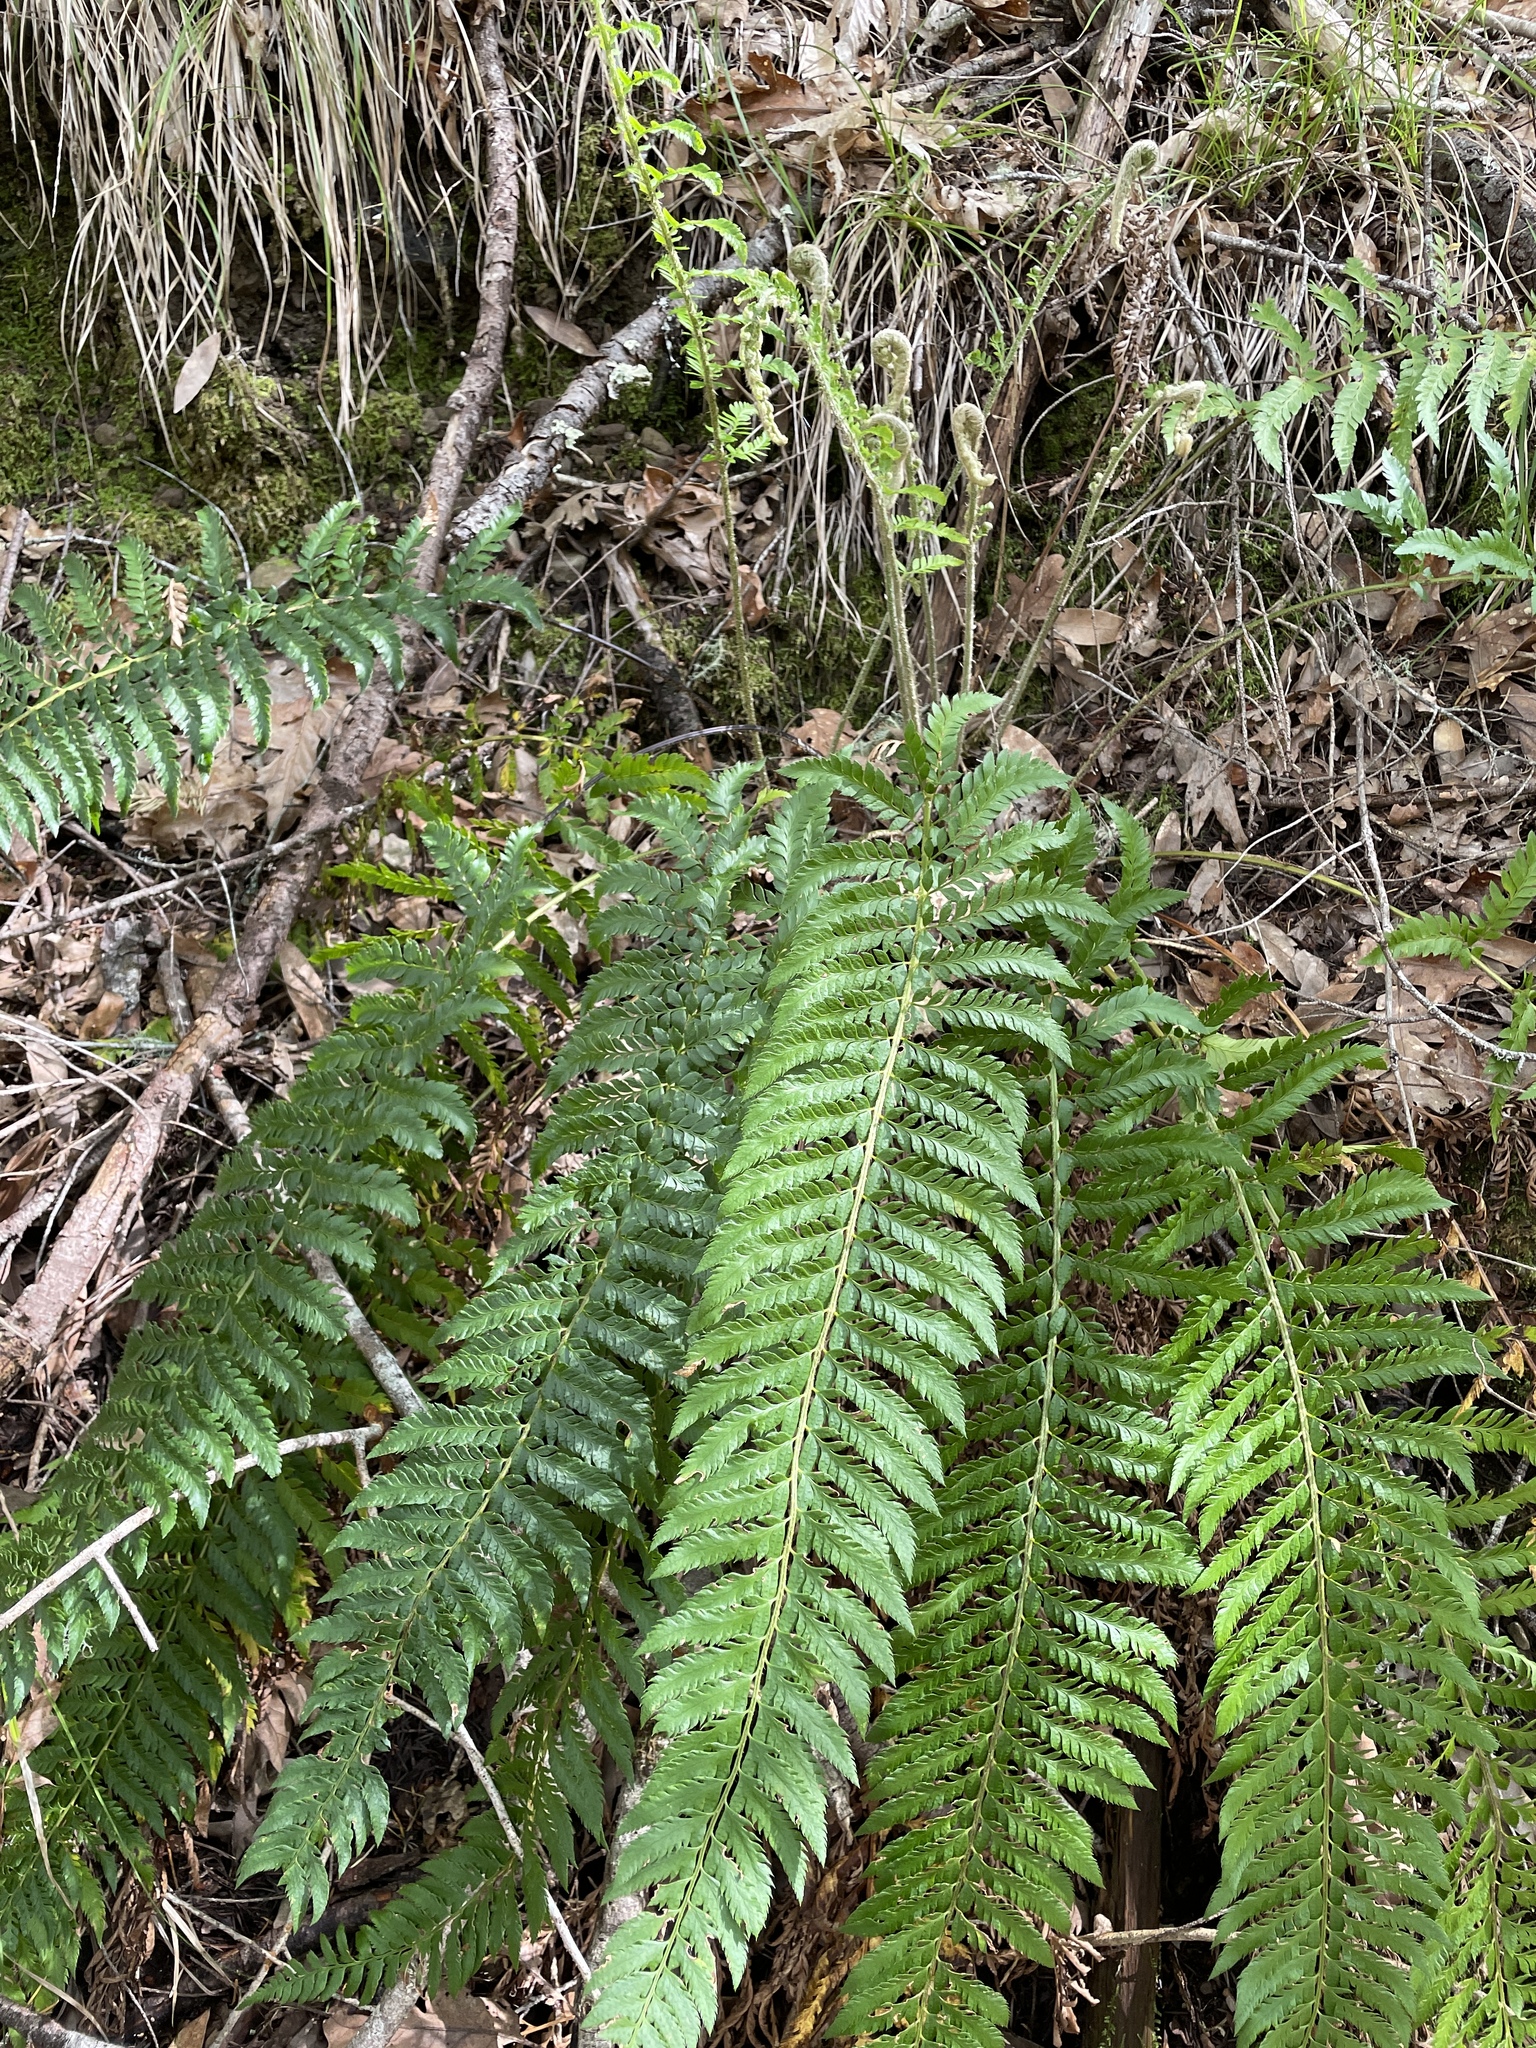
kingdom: Plantae
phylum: Tracheophyta
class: Polypodiopsida
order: Polypodiales
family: Dryopteridaceae
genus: Polystichum
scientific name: Polystichum californicum
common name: California sword fern
